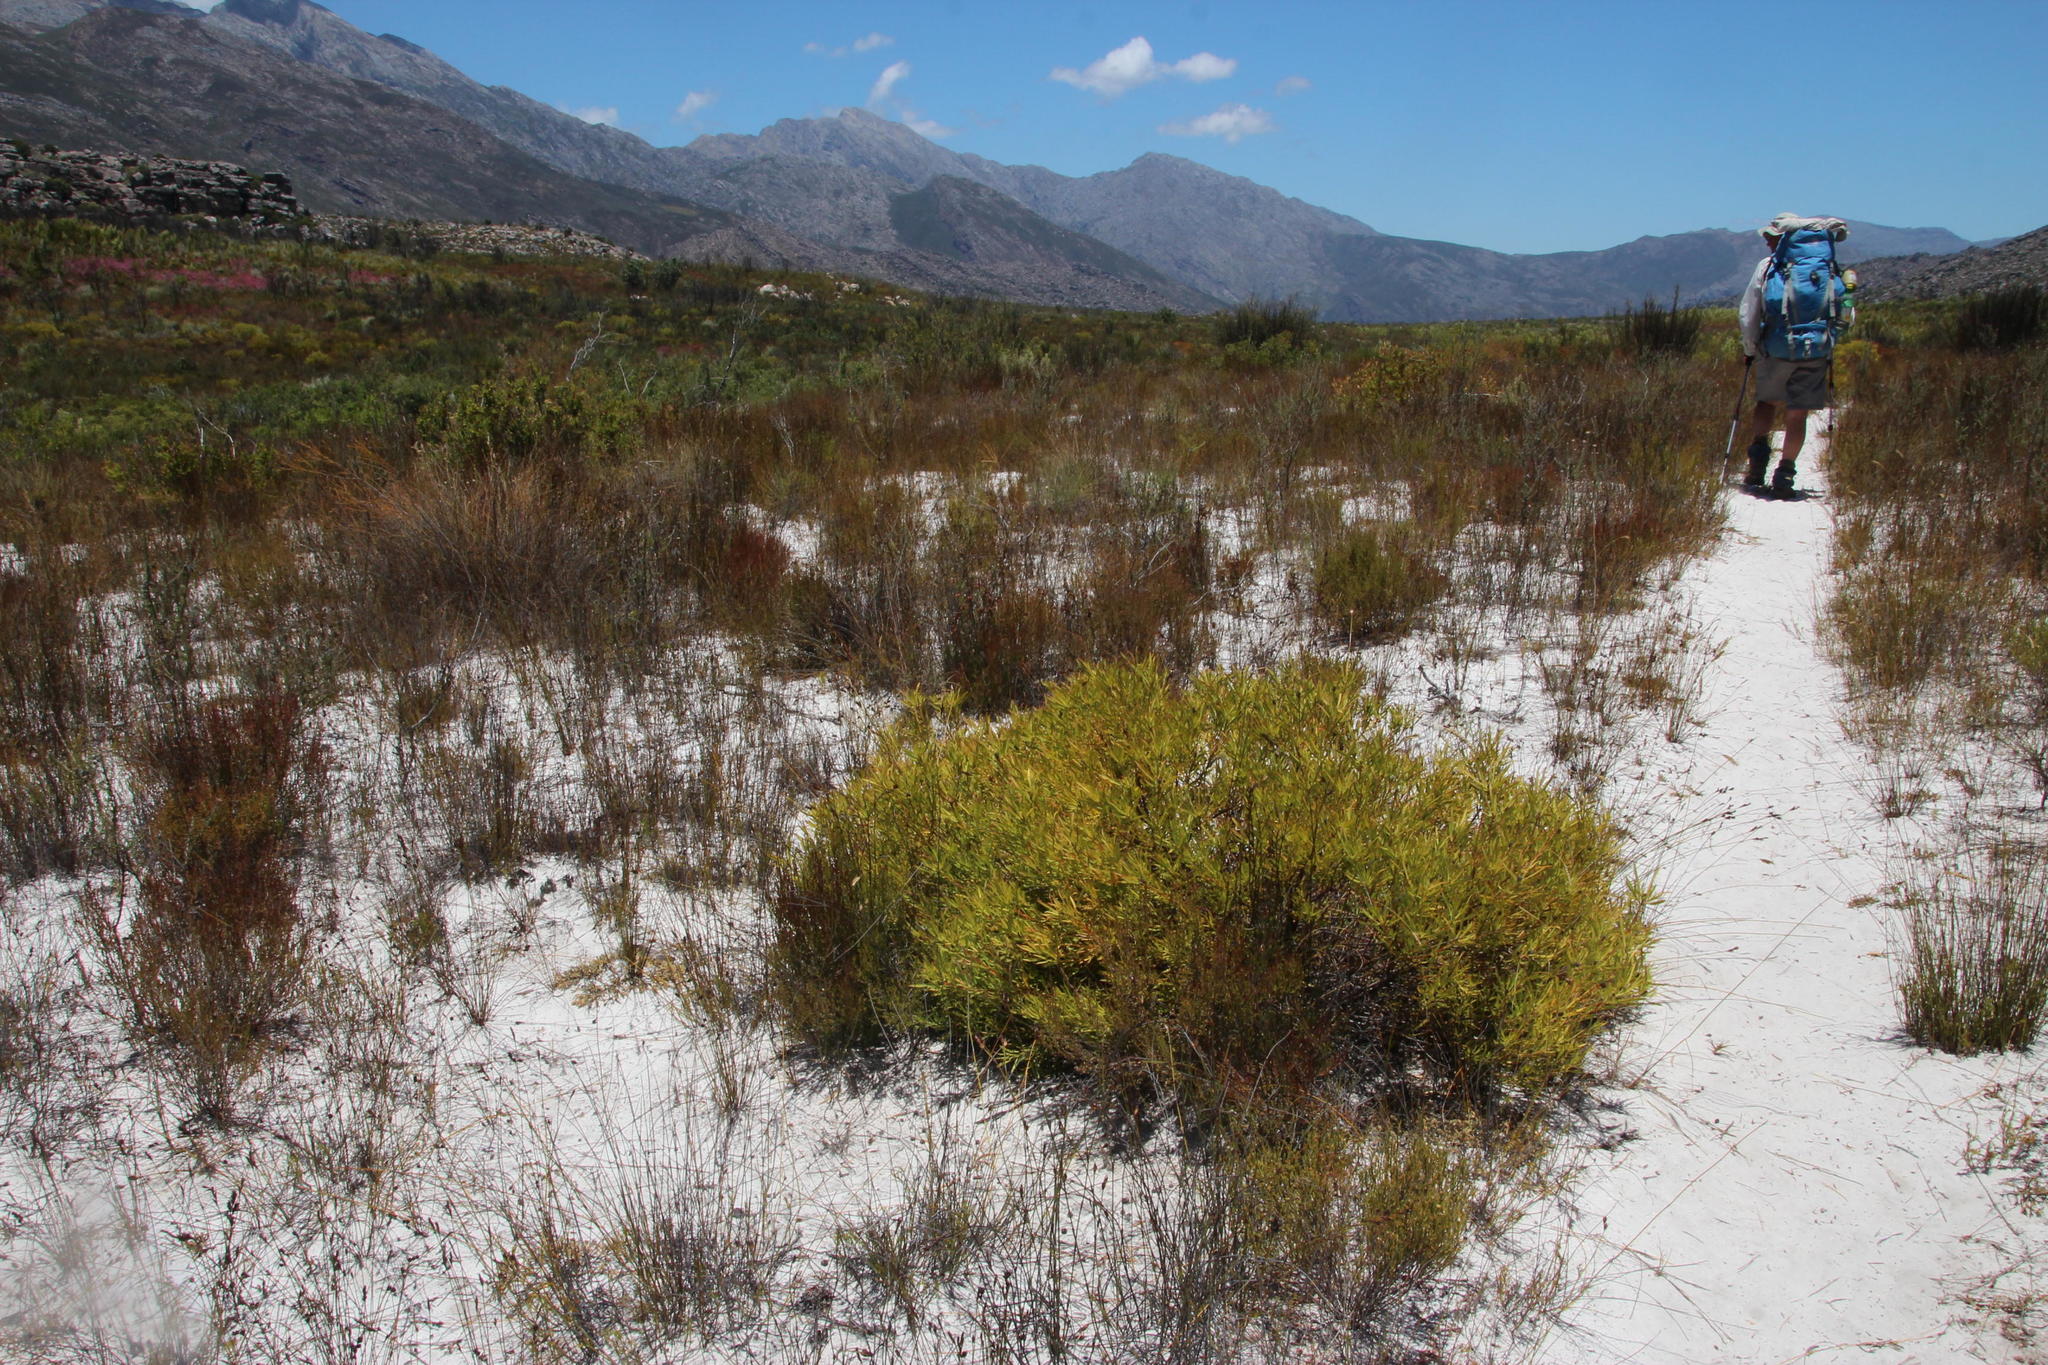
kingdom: Plantae
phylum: Tracheophyta
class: Magnoliopsida
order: Proteales
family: Proteaceae
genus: Leucadendron
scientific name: Leucadendron salignum
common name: Common sunshine conebush
